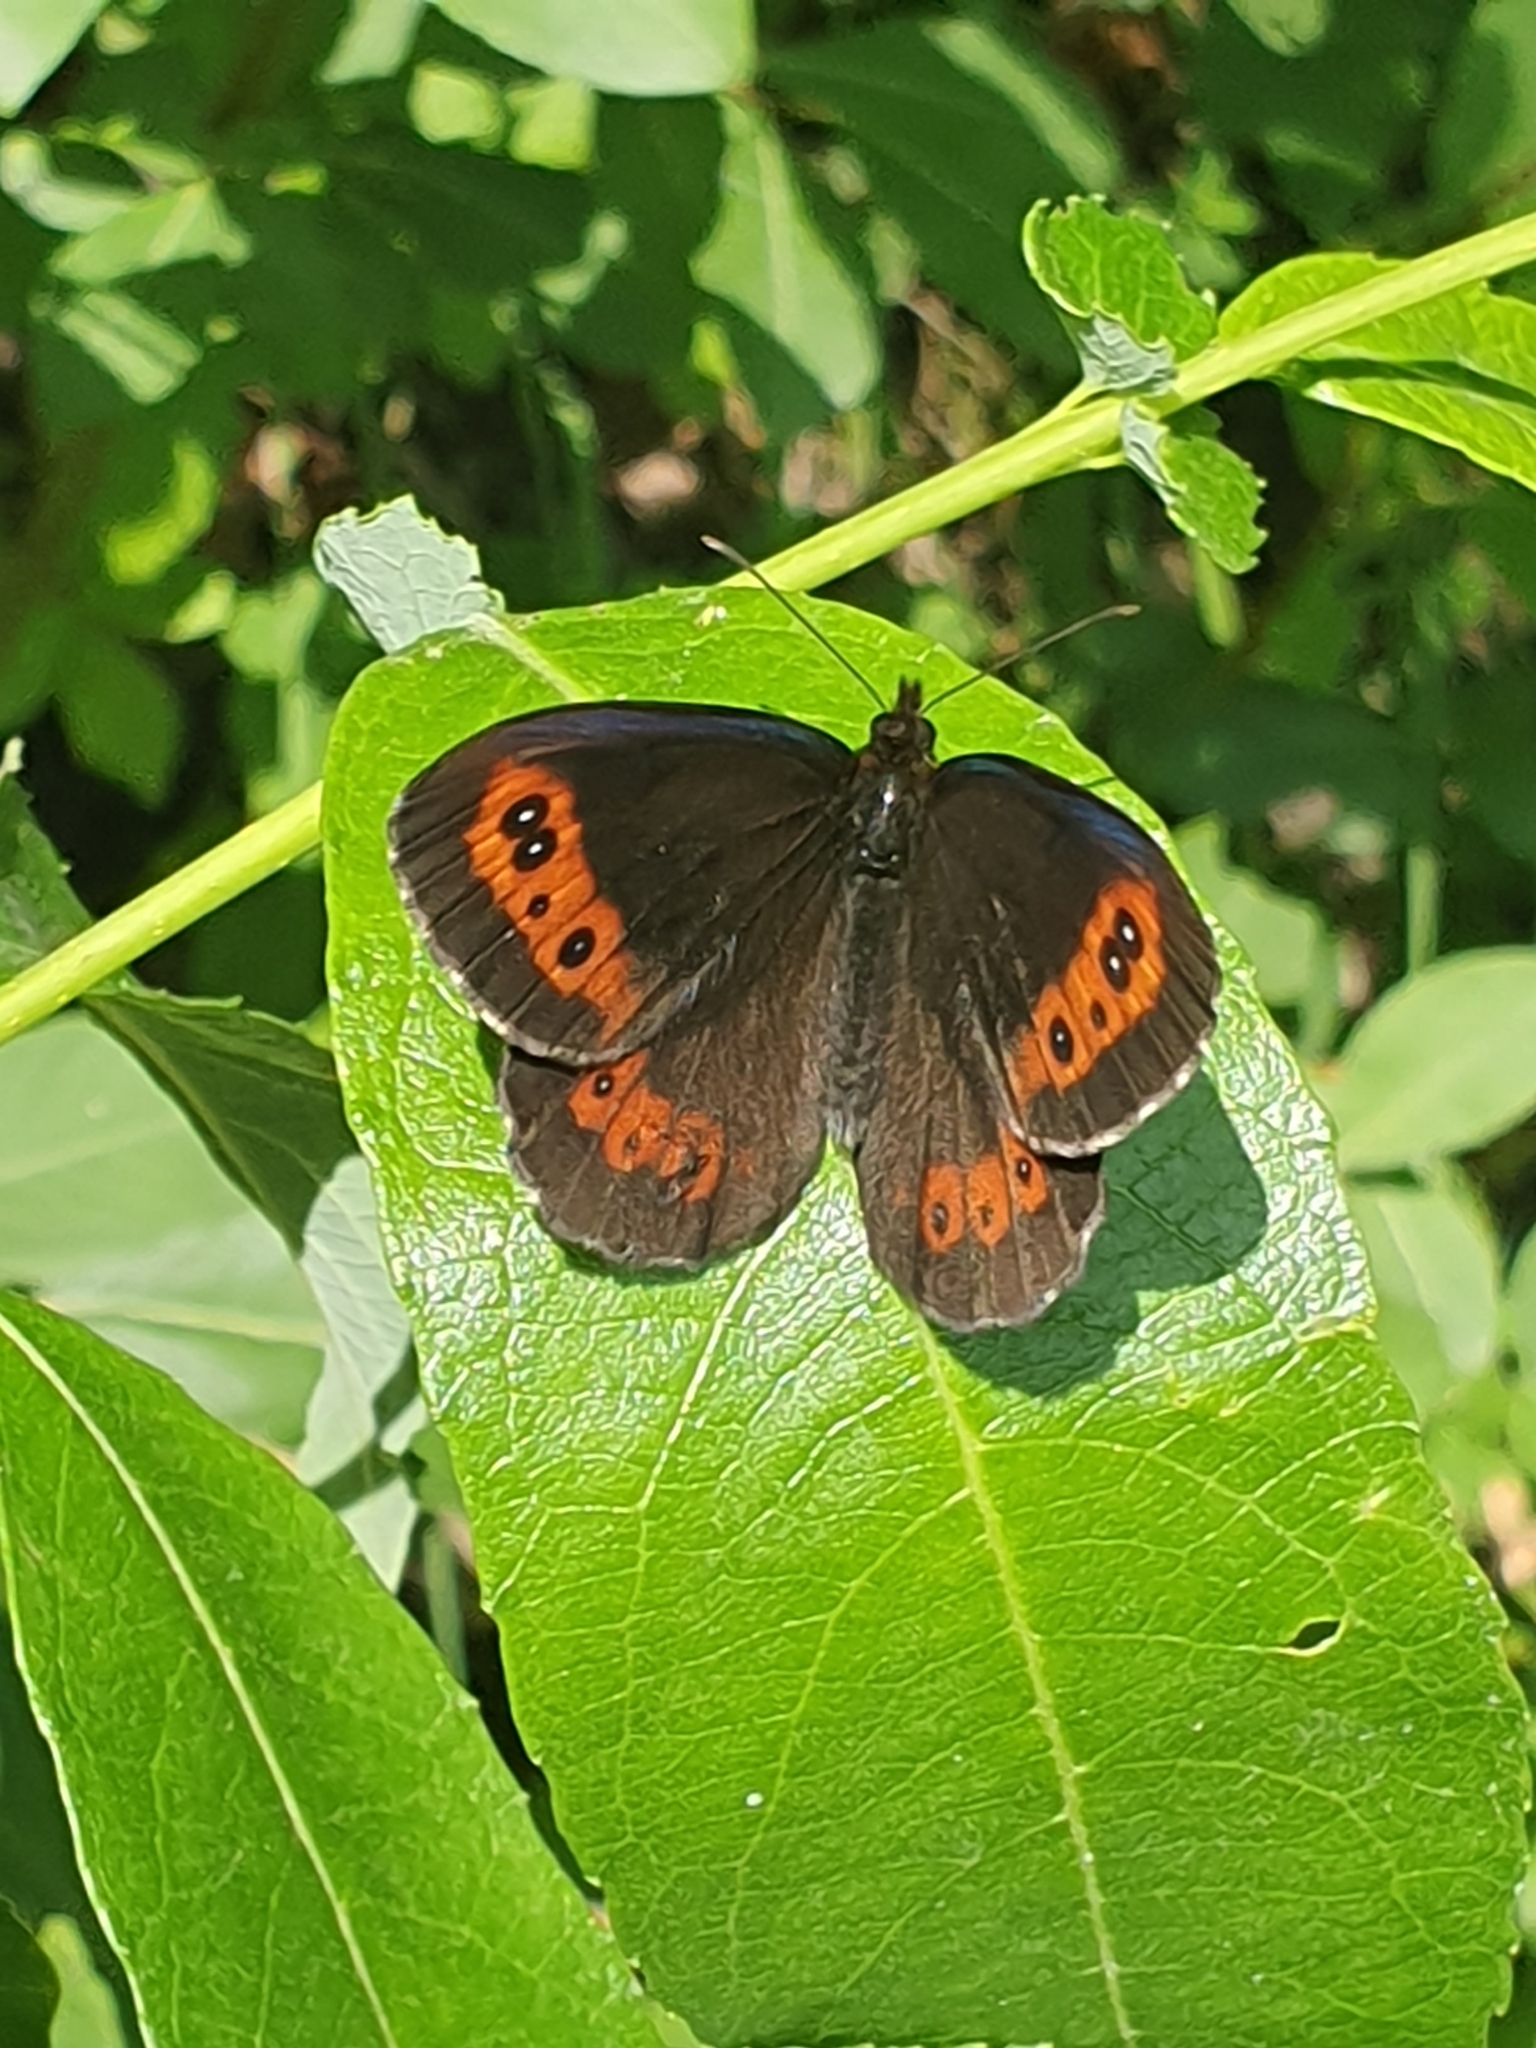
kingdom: Animalia
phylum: Arthropoda
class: Insecta
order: Lepidoptera
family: Nymphalidae
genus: Erebia
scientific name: Erebia ligea
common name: Arran brown
